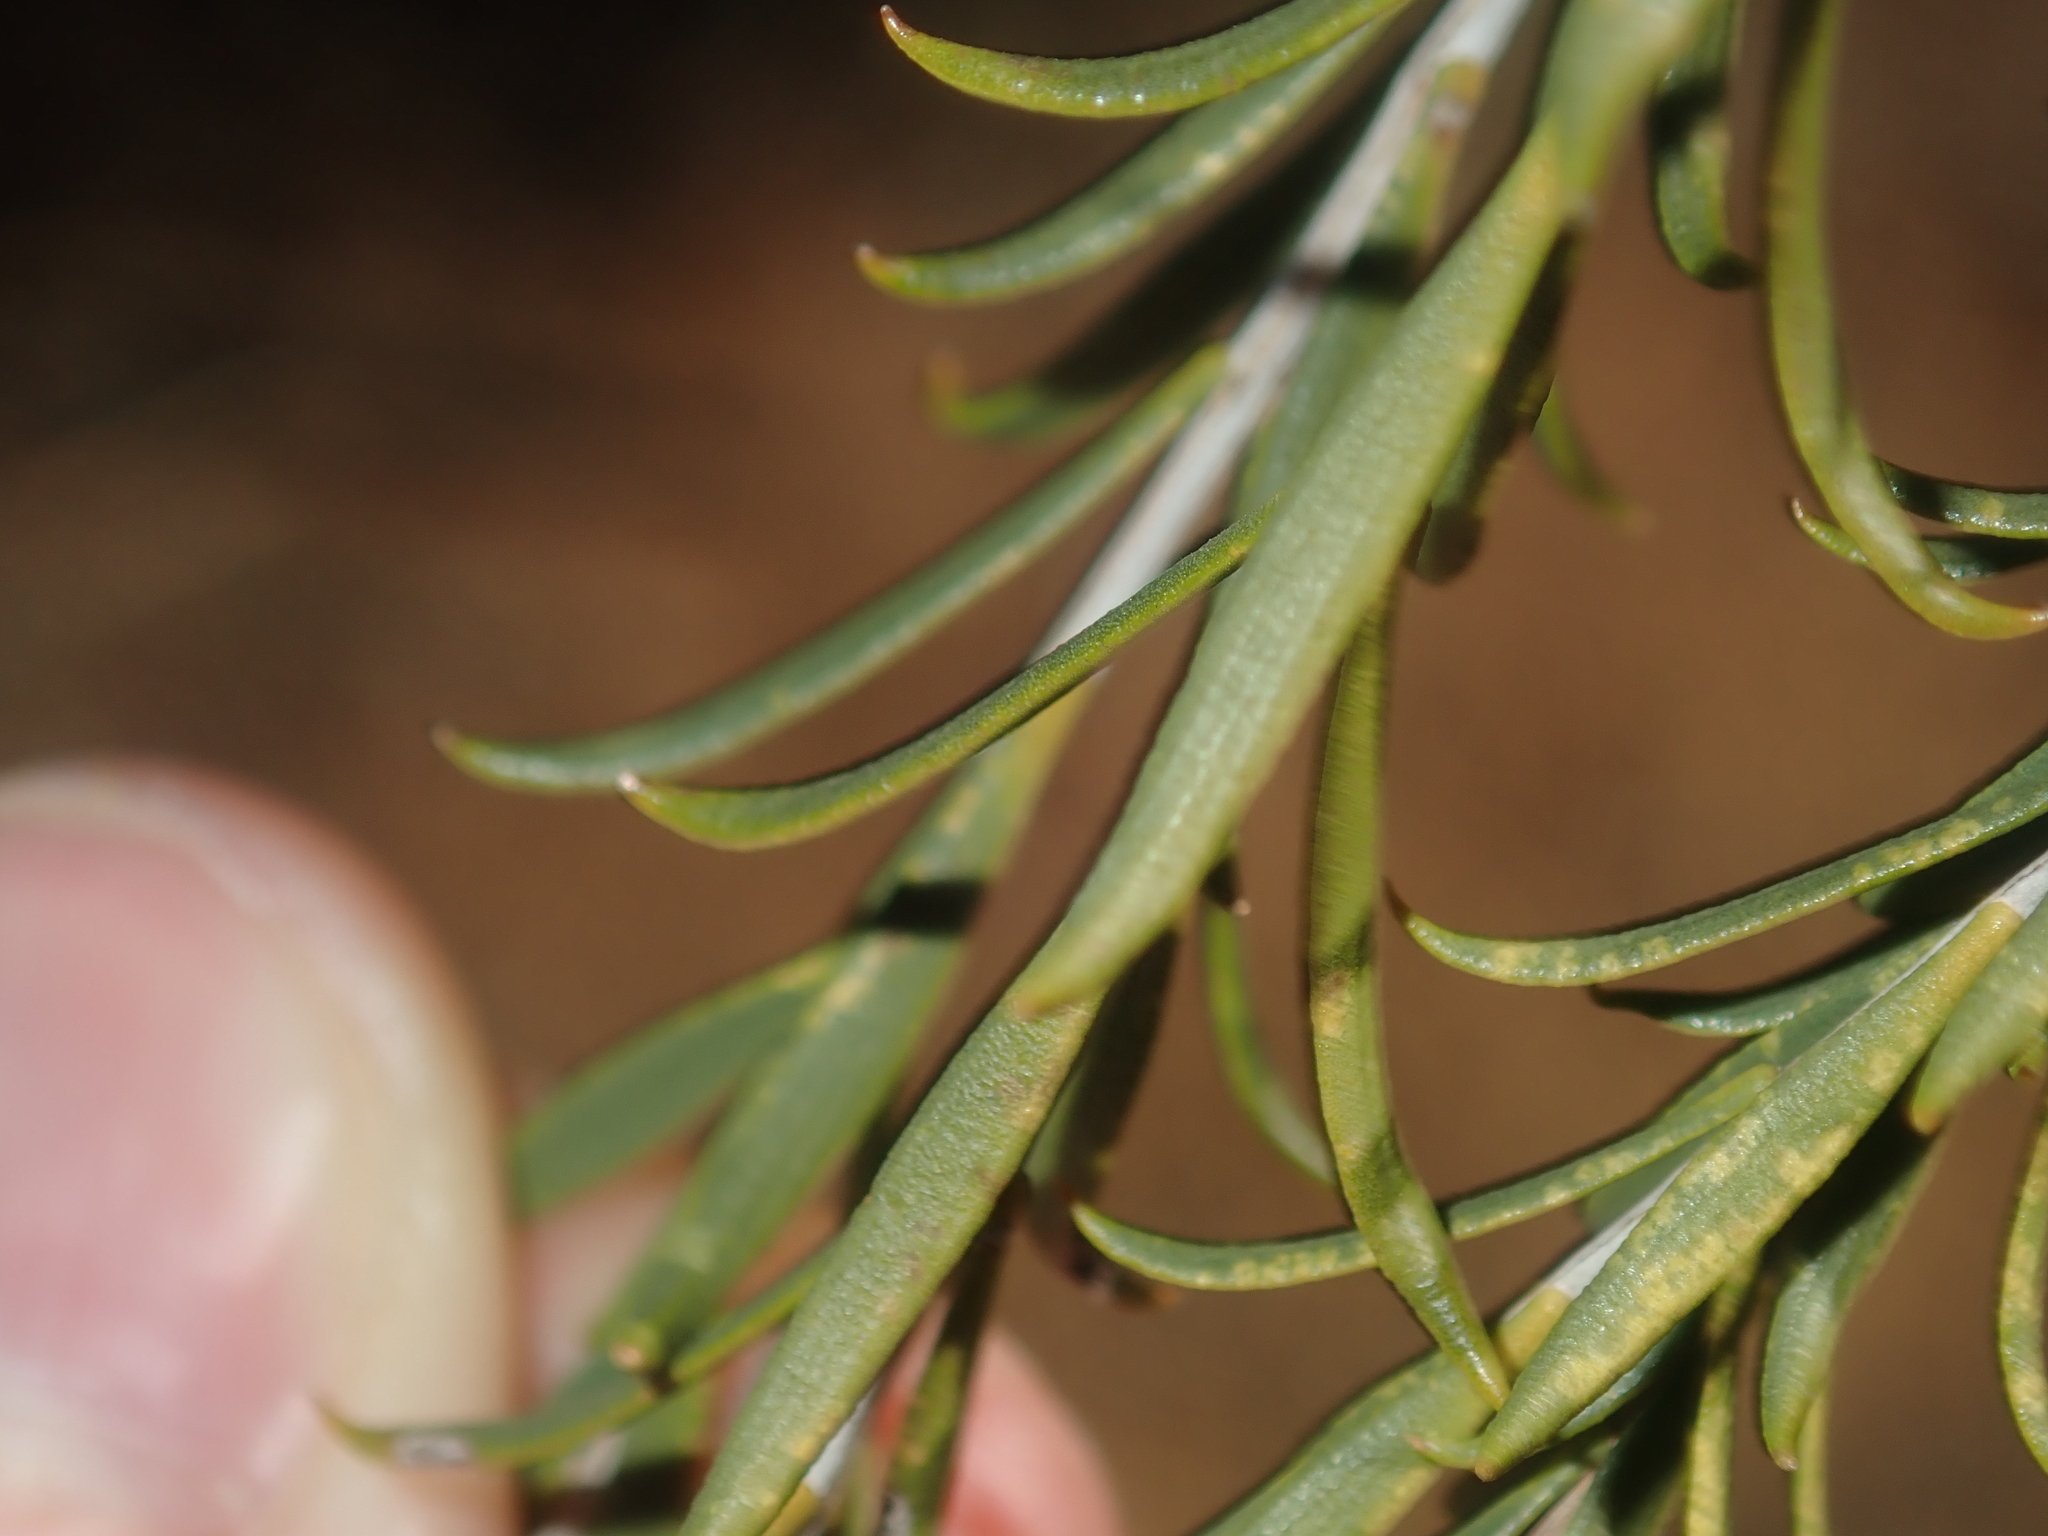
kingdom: Plantae
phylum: Tracheophyta
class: Magnoliopsida
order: Myrtales
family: Myrtaceae
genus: Melaleuca
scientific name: Melaleuca eleuterostachya
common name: Hummock honey myrtle
